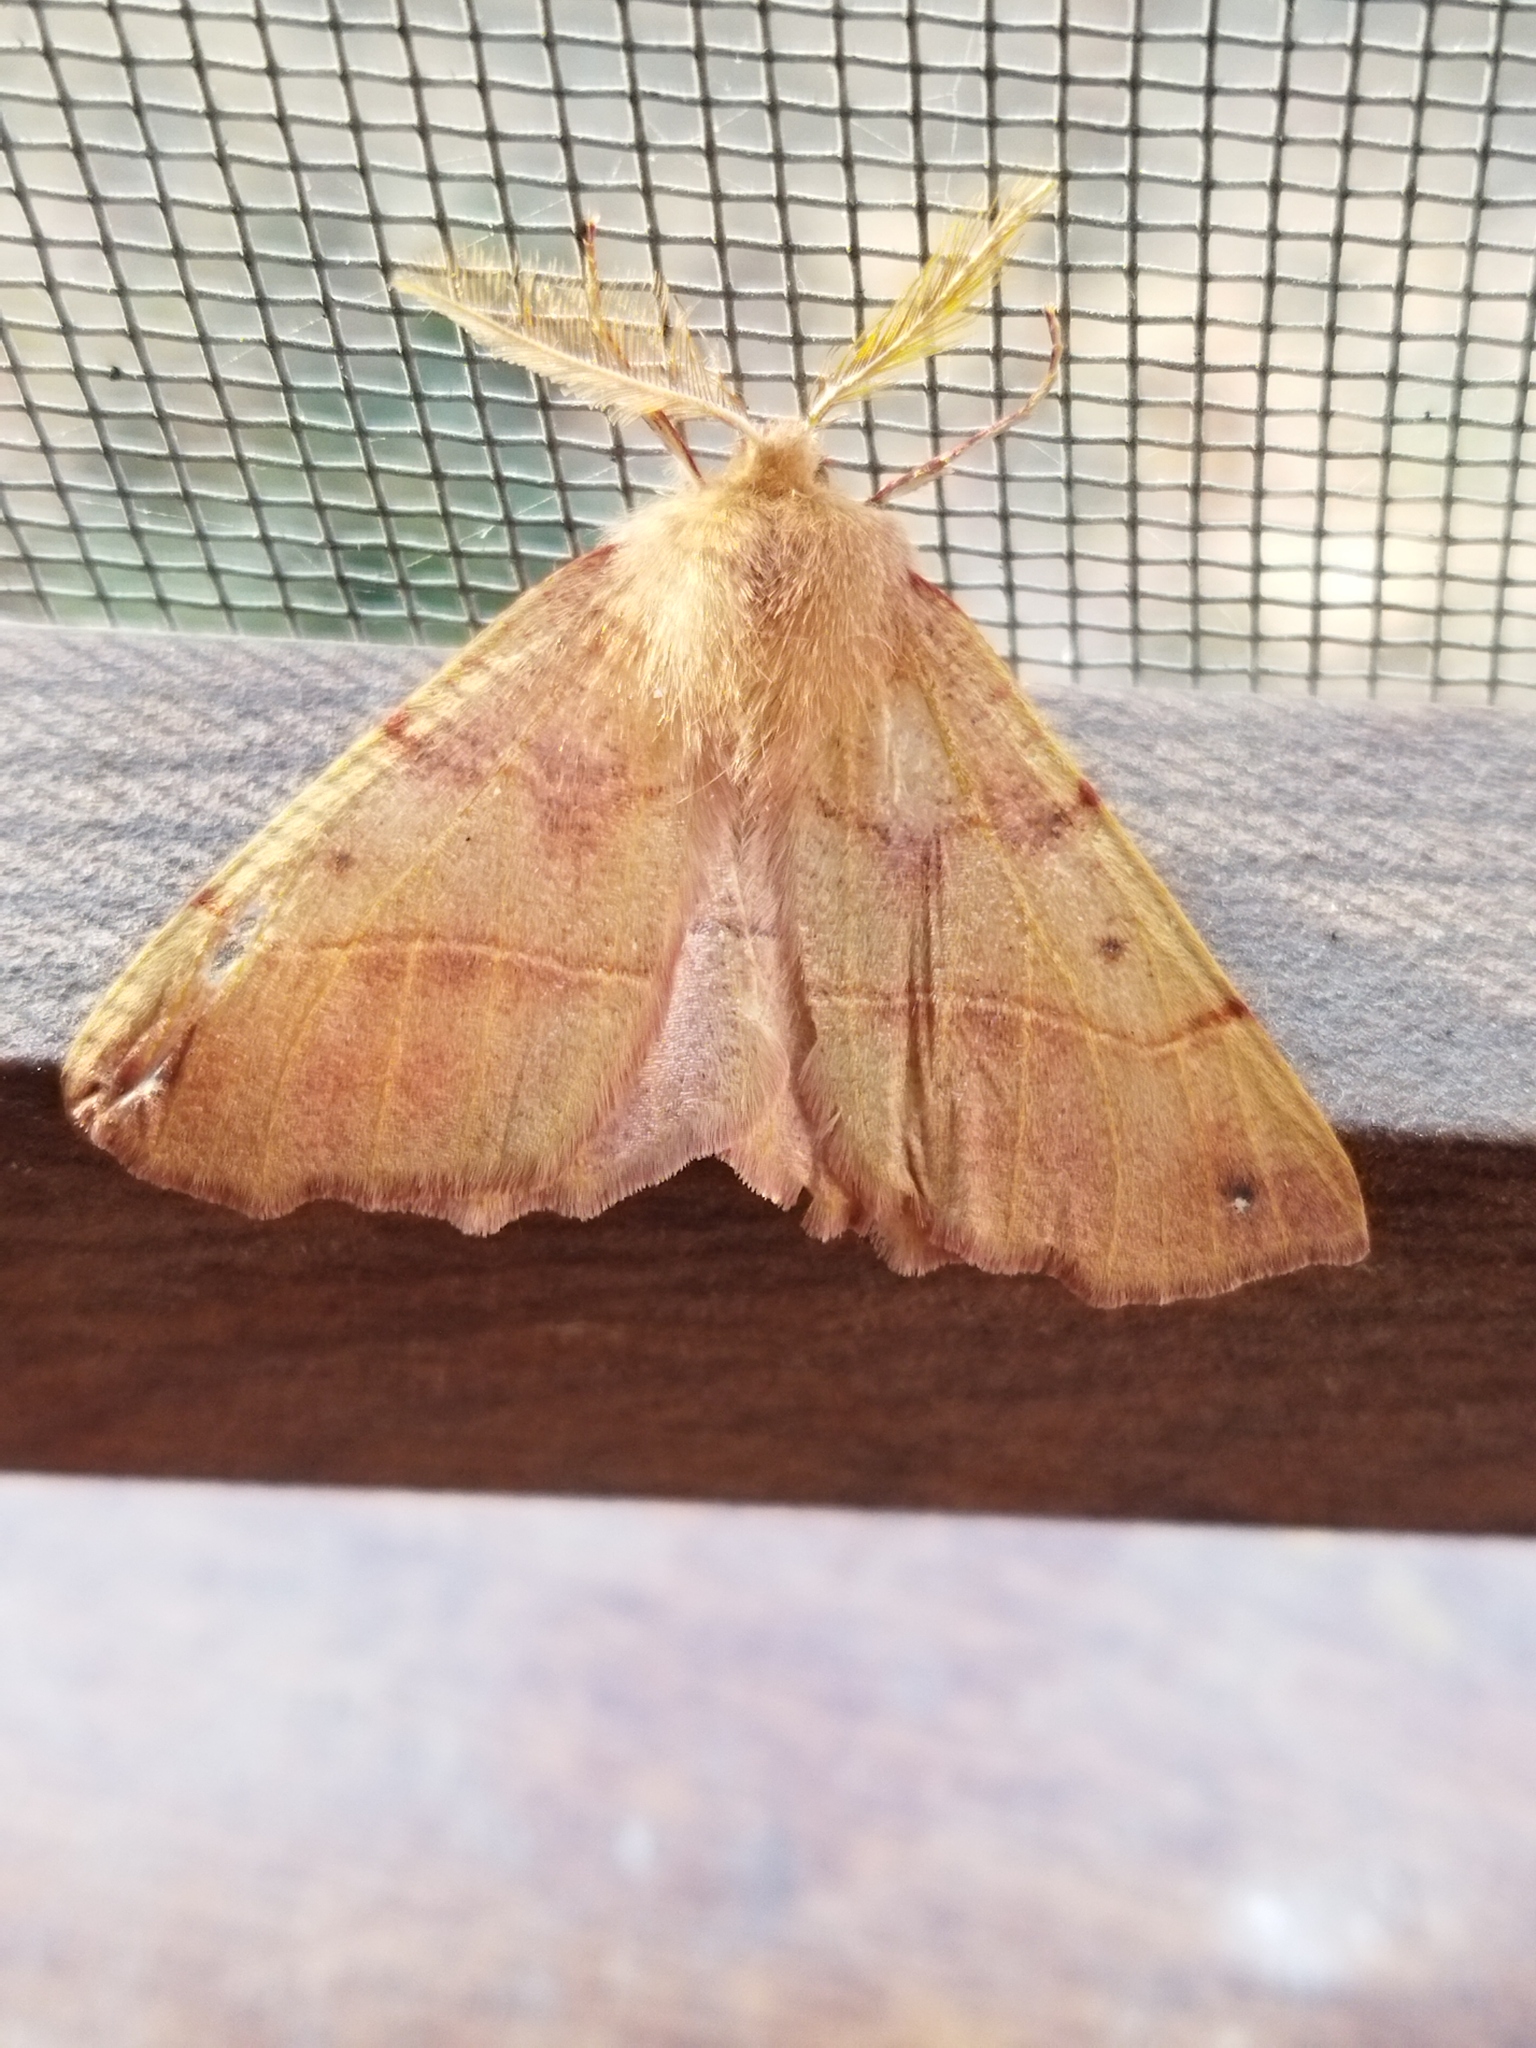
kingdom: Animalia
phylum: Arthropoda
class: Insecta
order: Lepidoptera
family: Geometridae
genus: Colotois
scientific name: Colotois pennaria
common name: Feathered thorn
